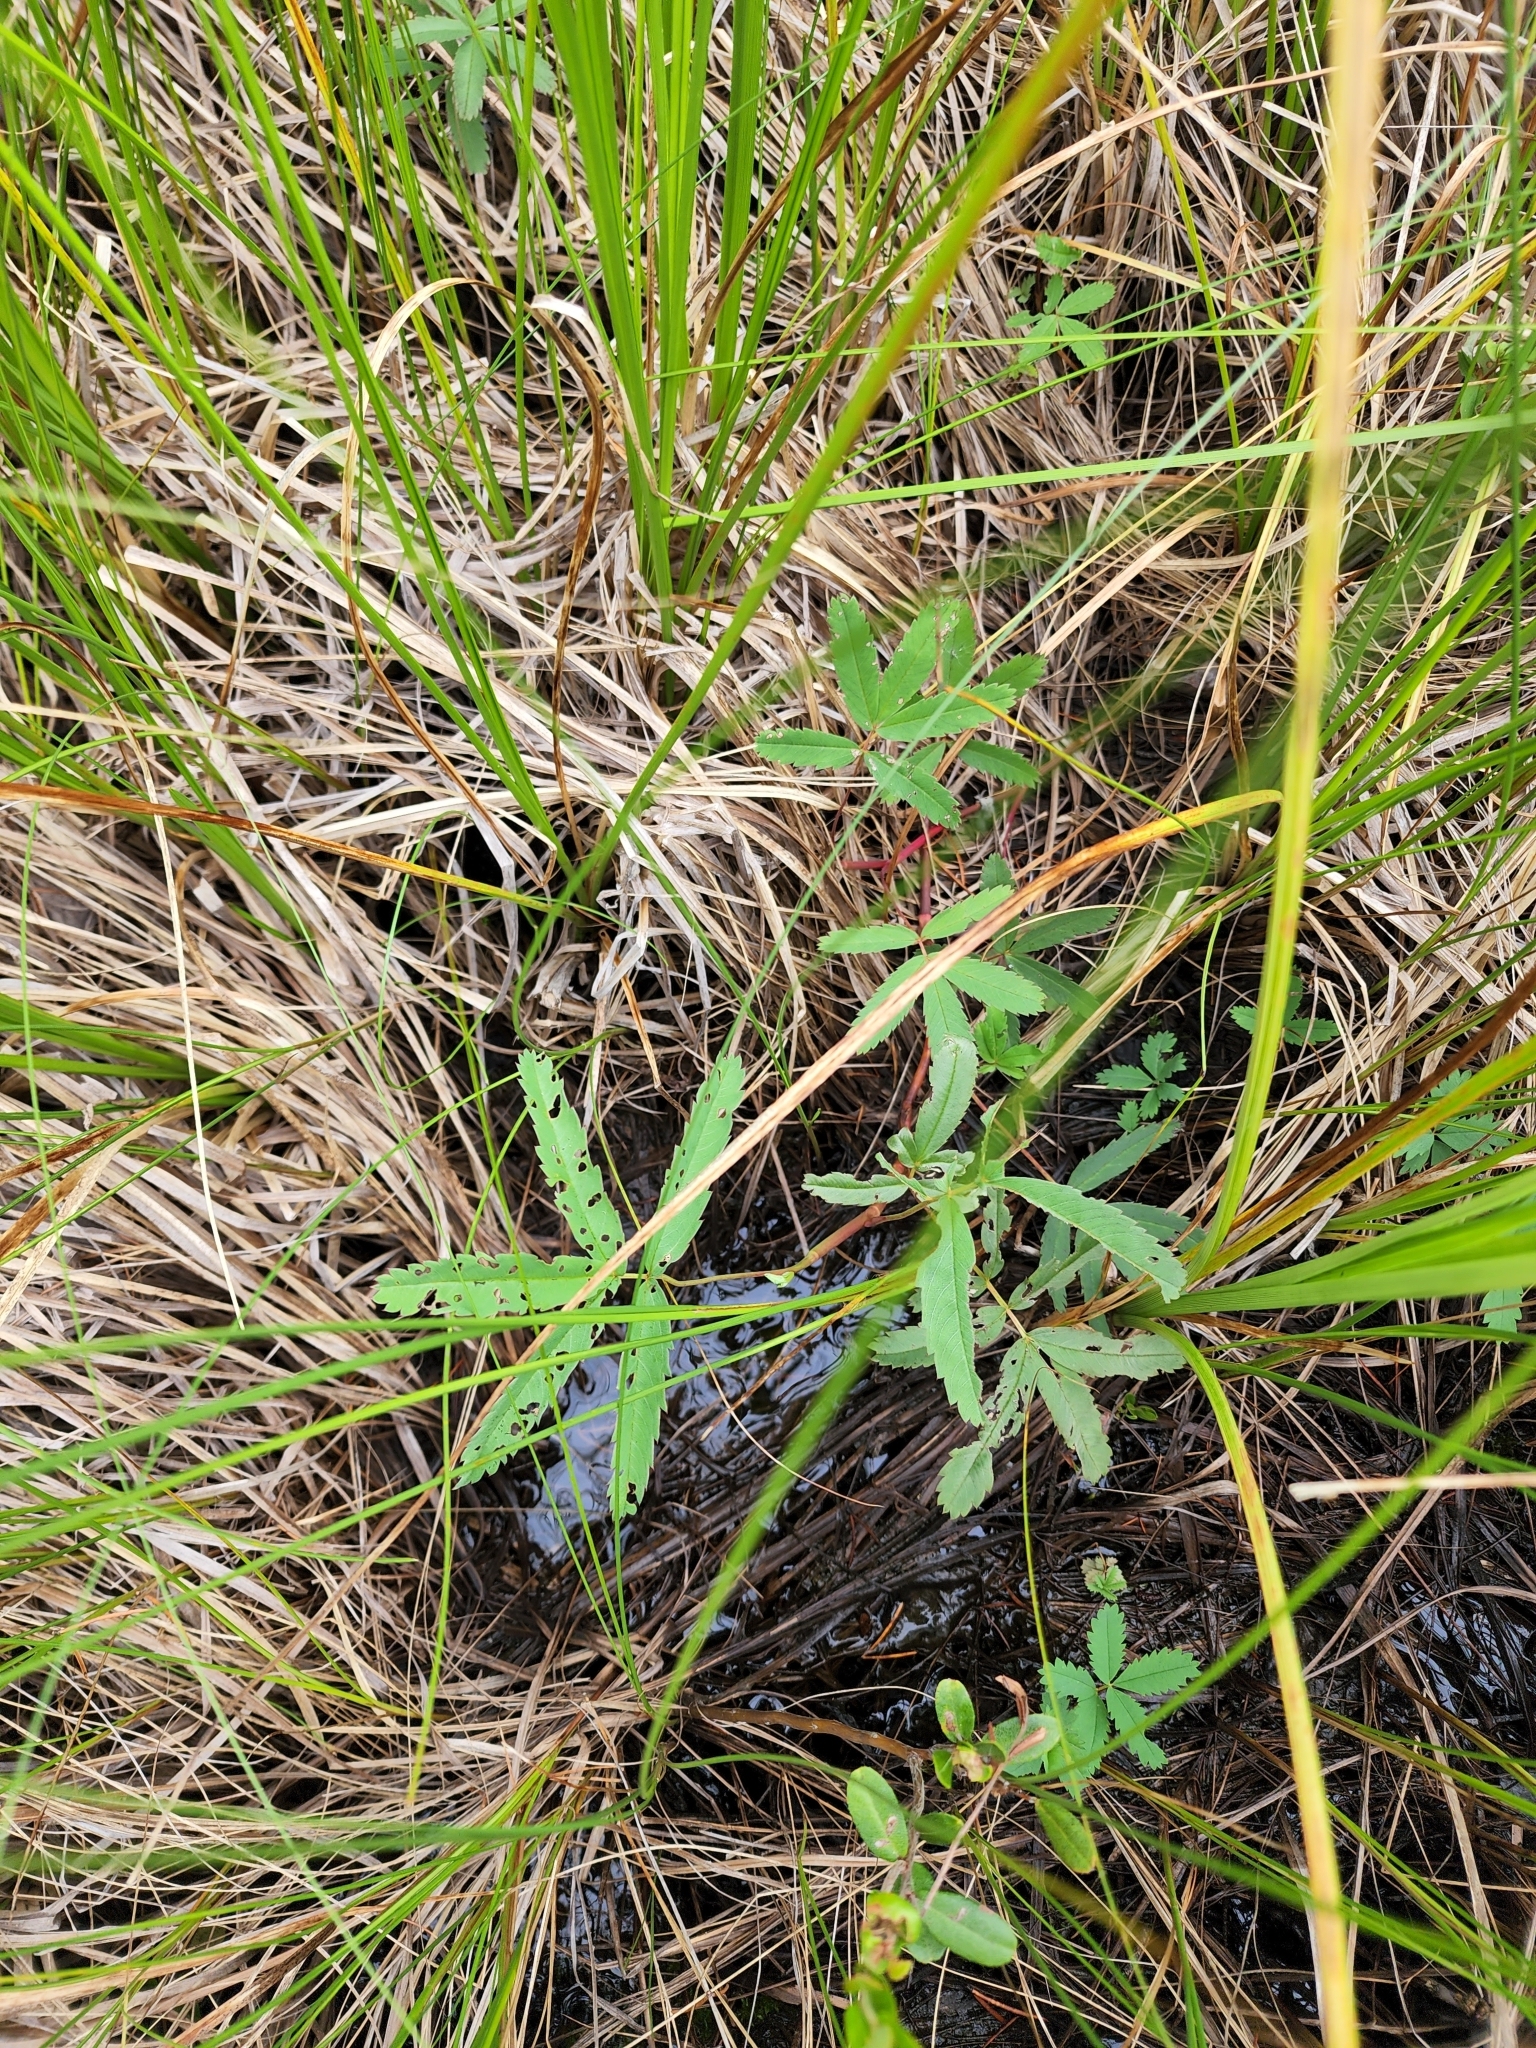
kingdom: Plantae
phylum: Tracheophyta
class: Magnoliopsida
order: Rosales
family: Rosaceae
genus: Comarum
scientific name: Comarum palustre
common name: Marsh cinquefoil
